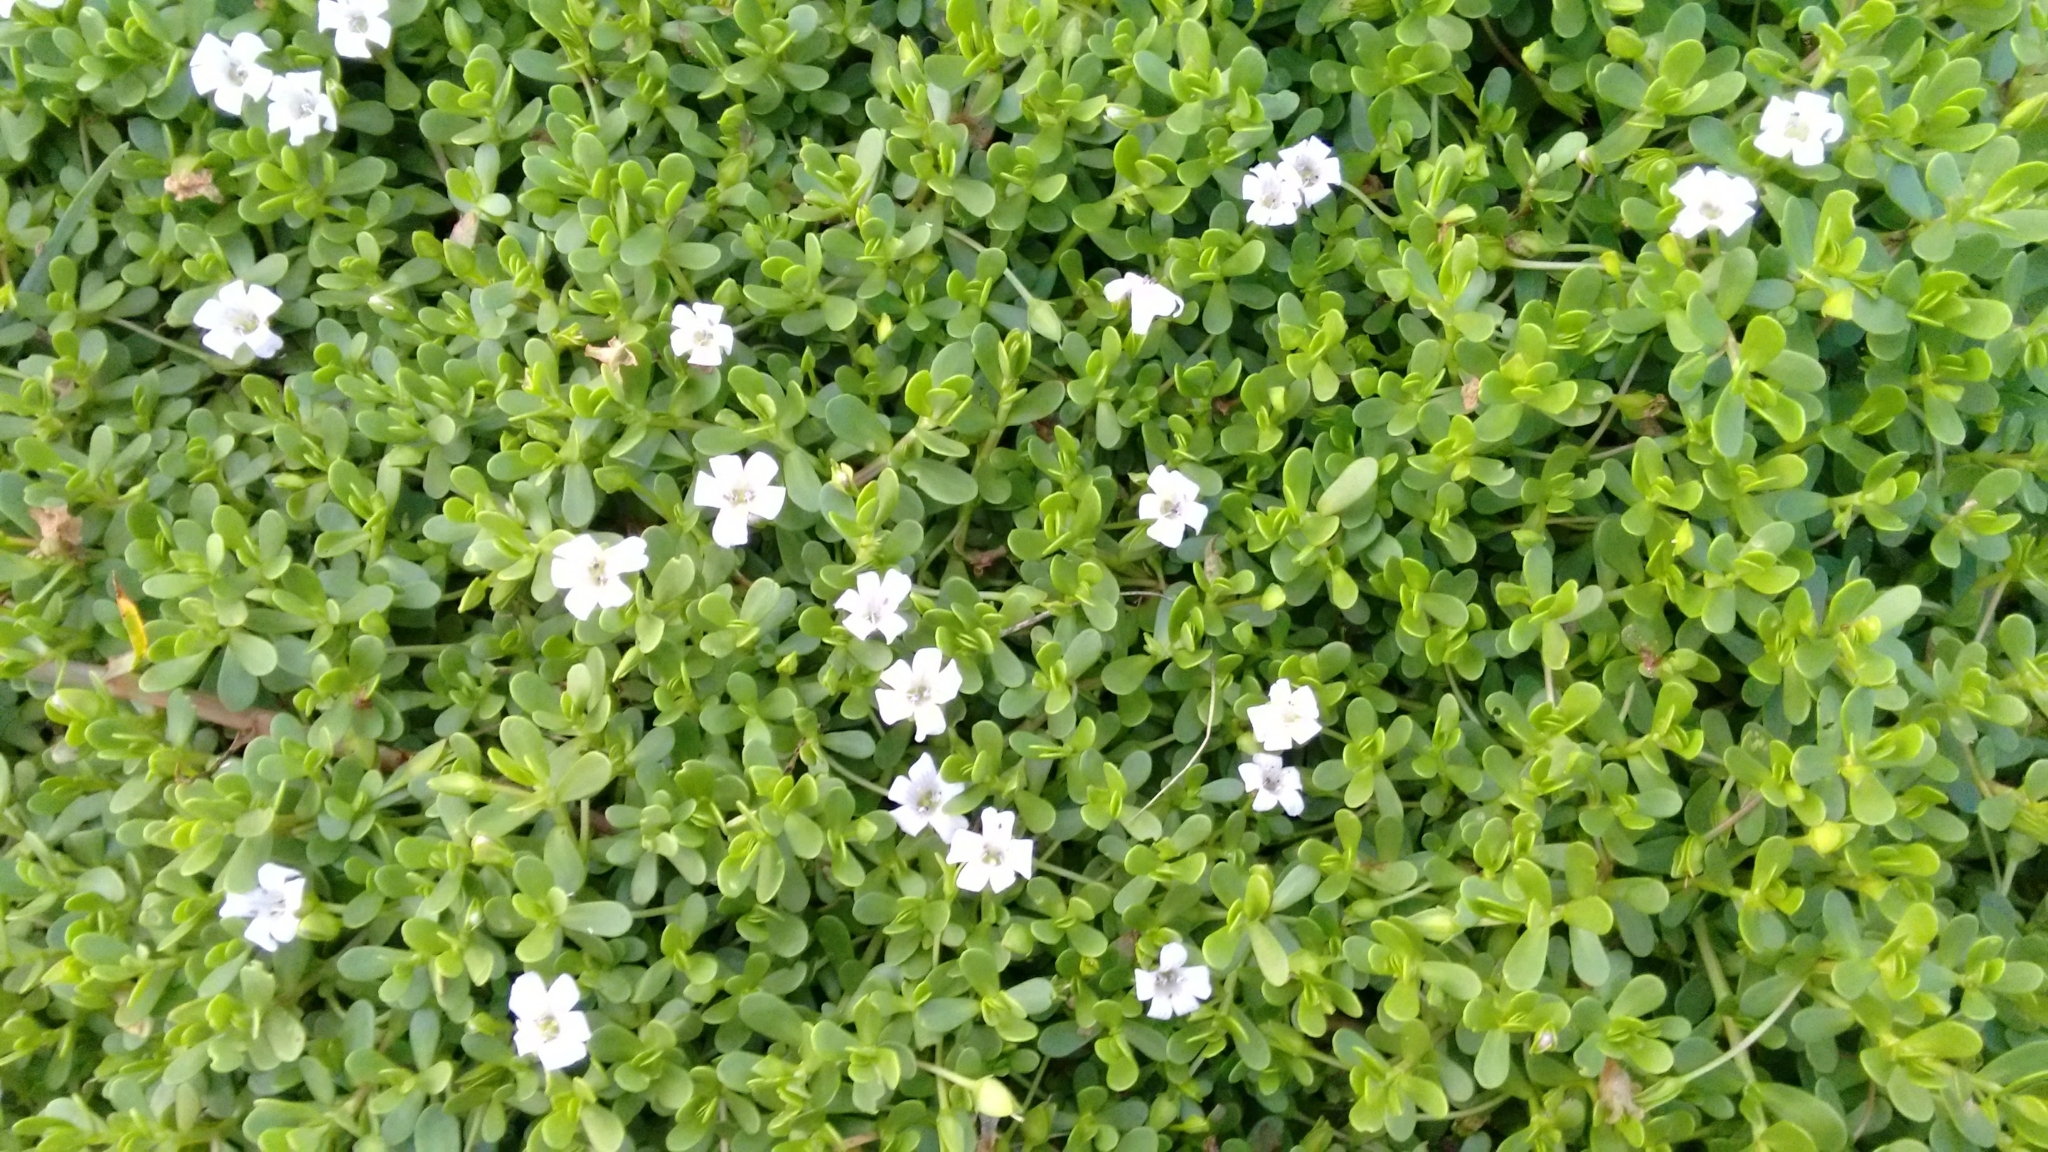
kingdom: Plantae
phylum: Tracheophyta
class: Magnoliopsida
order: Lamiales
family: Plantaginaceae
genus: Bacopa
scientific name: Bacopa monnieri
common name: Indian-pennywort
